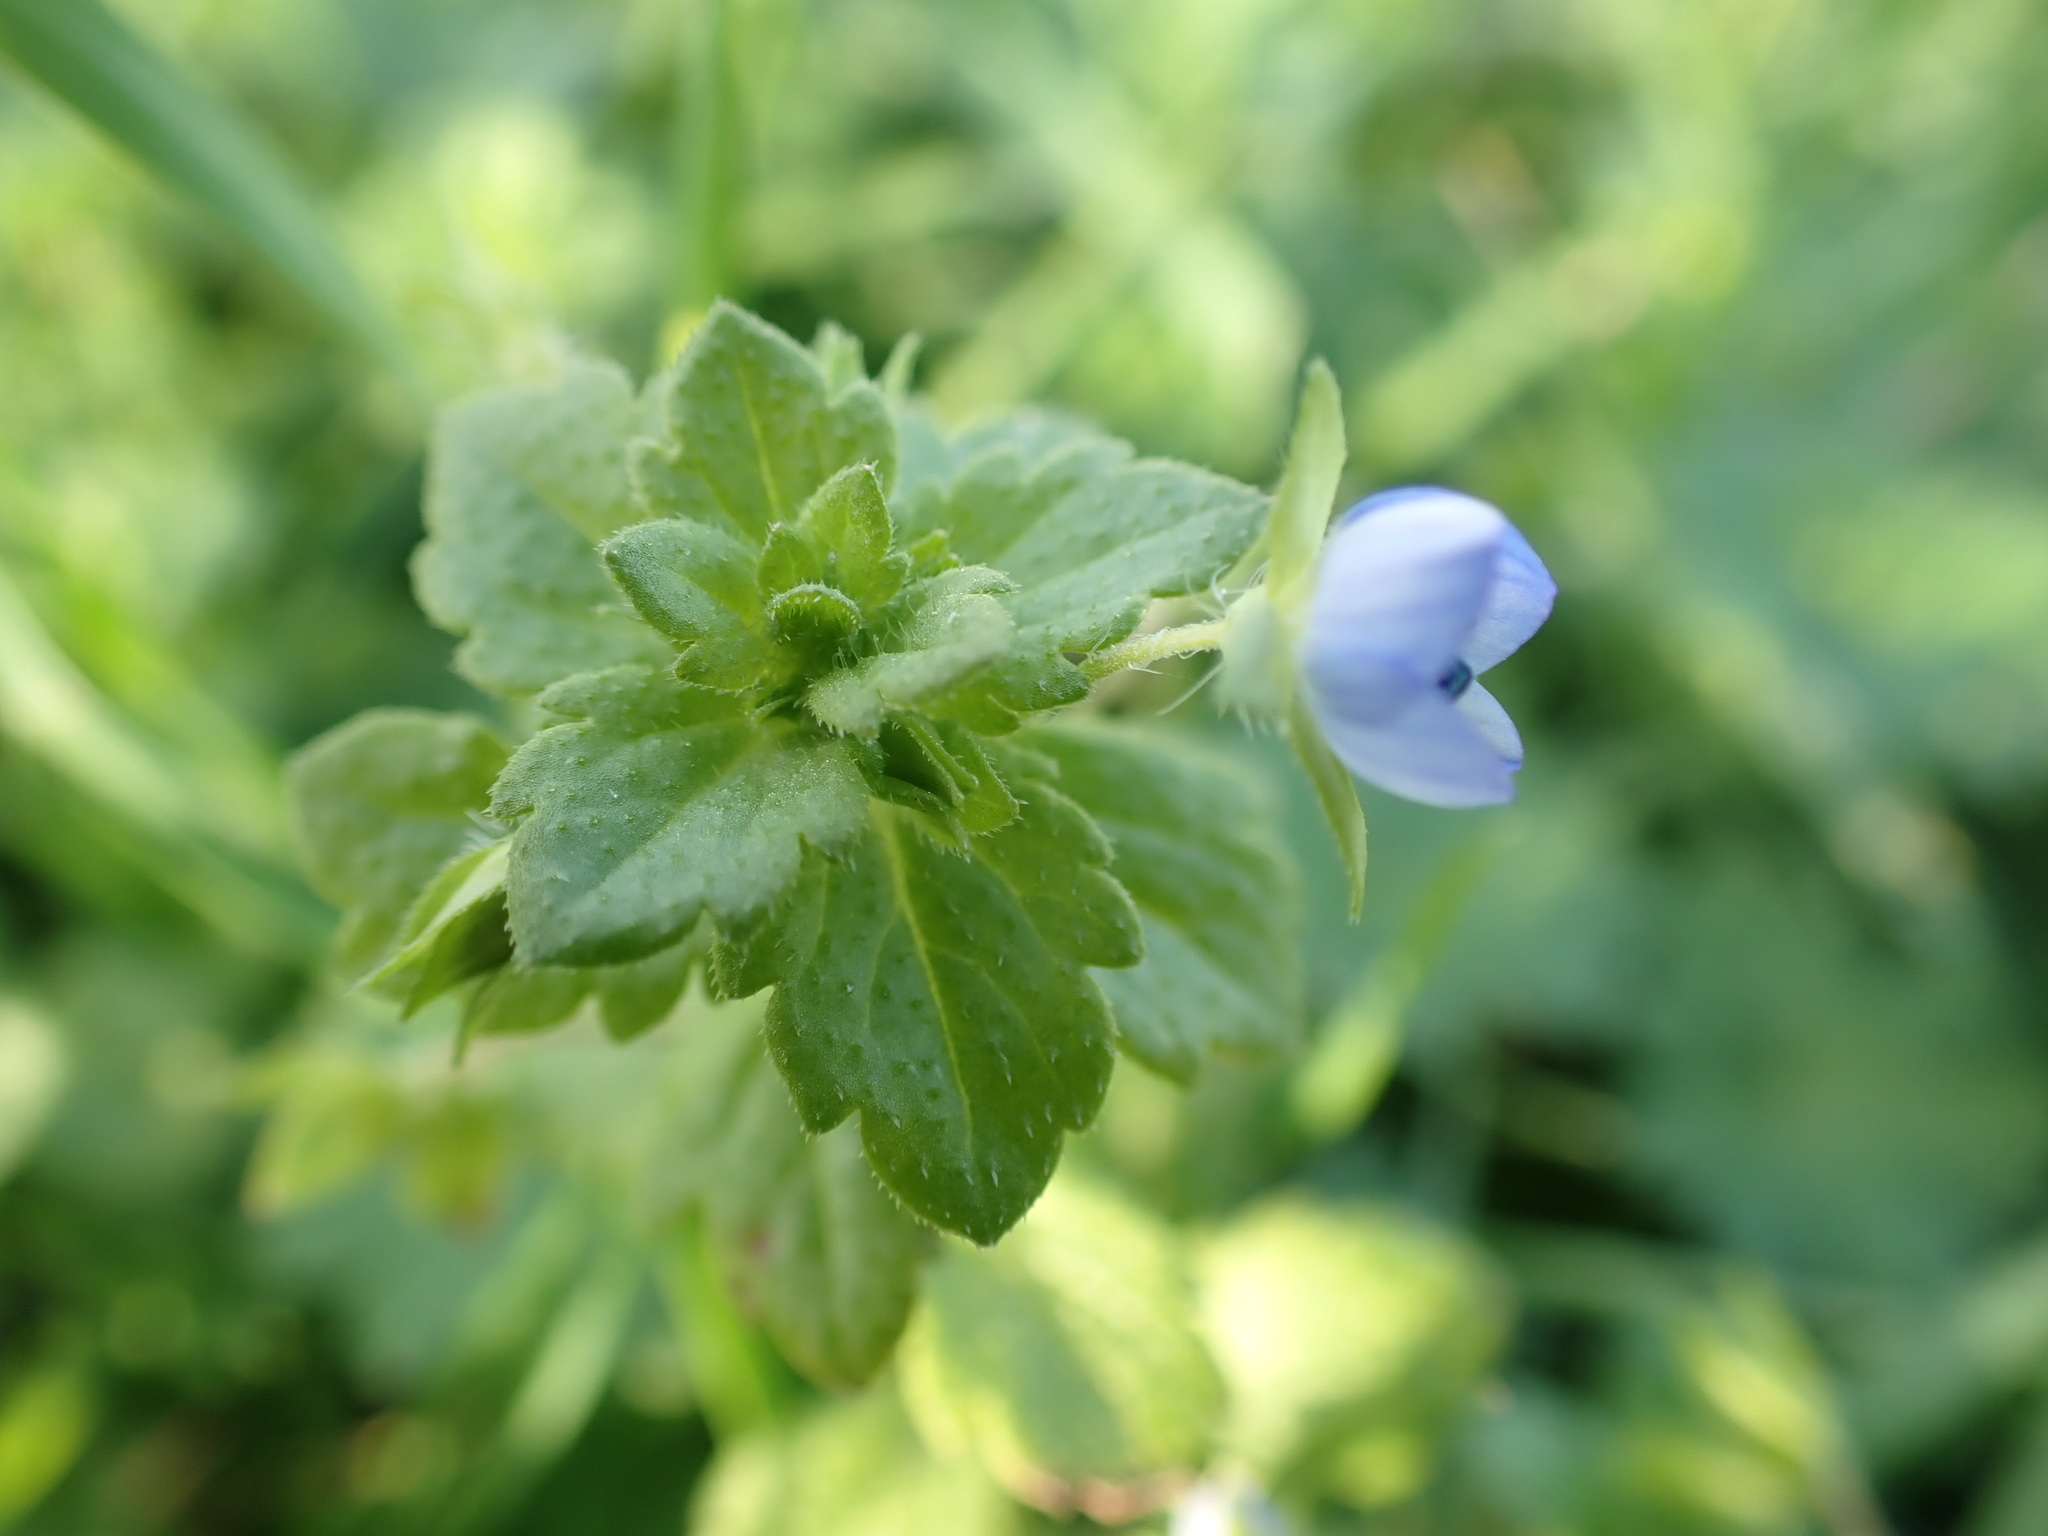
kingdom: Plantae
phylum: Tracheophyta
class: Magnoliopsida
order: Lamiales
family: Plantaginaceae
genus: Veronica
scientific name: Veronica persica
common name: Common field-speedwell
